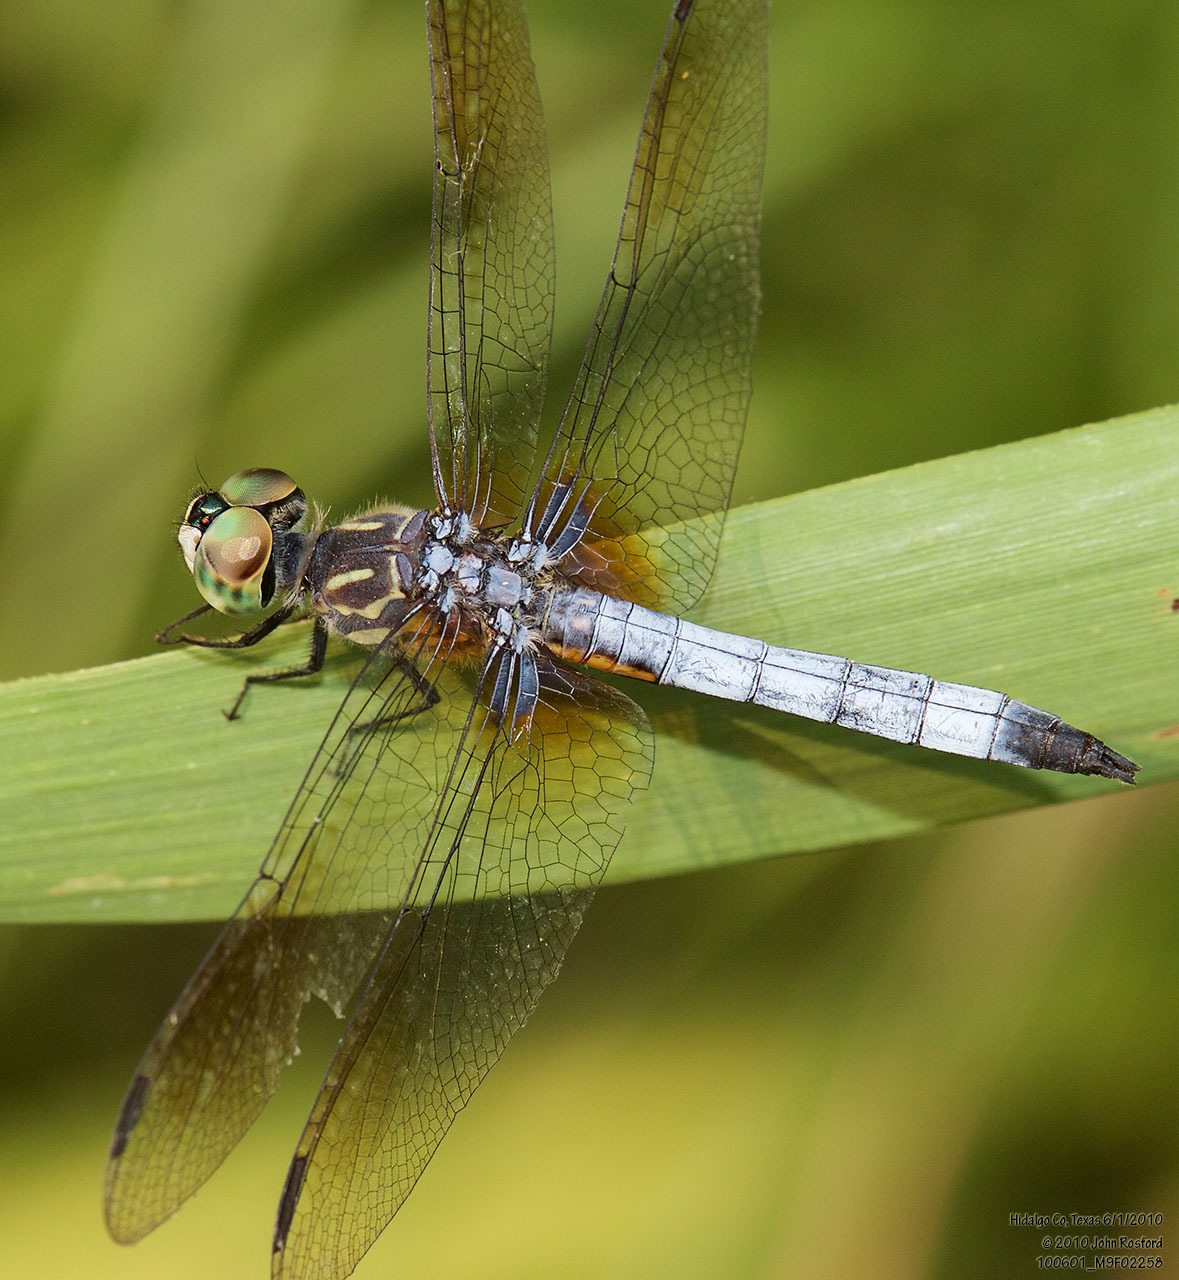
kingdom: Animalia
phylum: Arthropoda
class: Insecta
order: Odonata
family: Libellulidae
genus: Pachydiplax
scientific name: Pachydiplax longipennis
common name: Blue dasher
